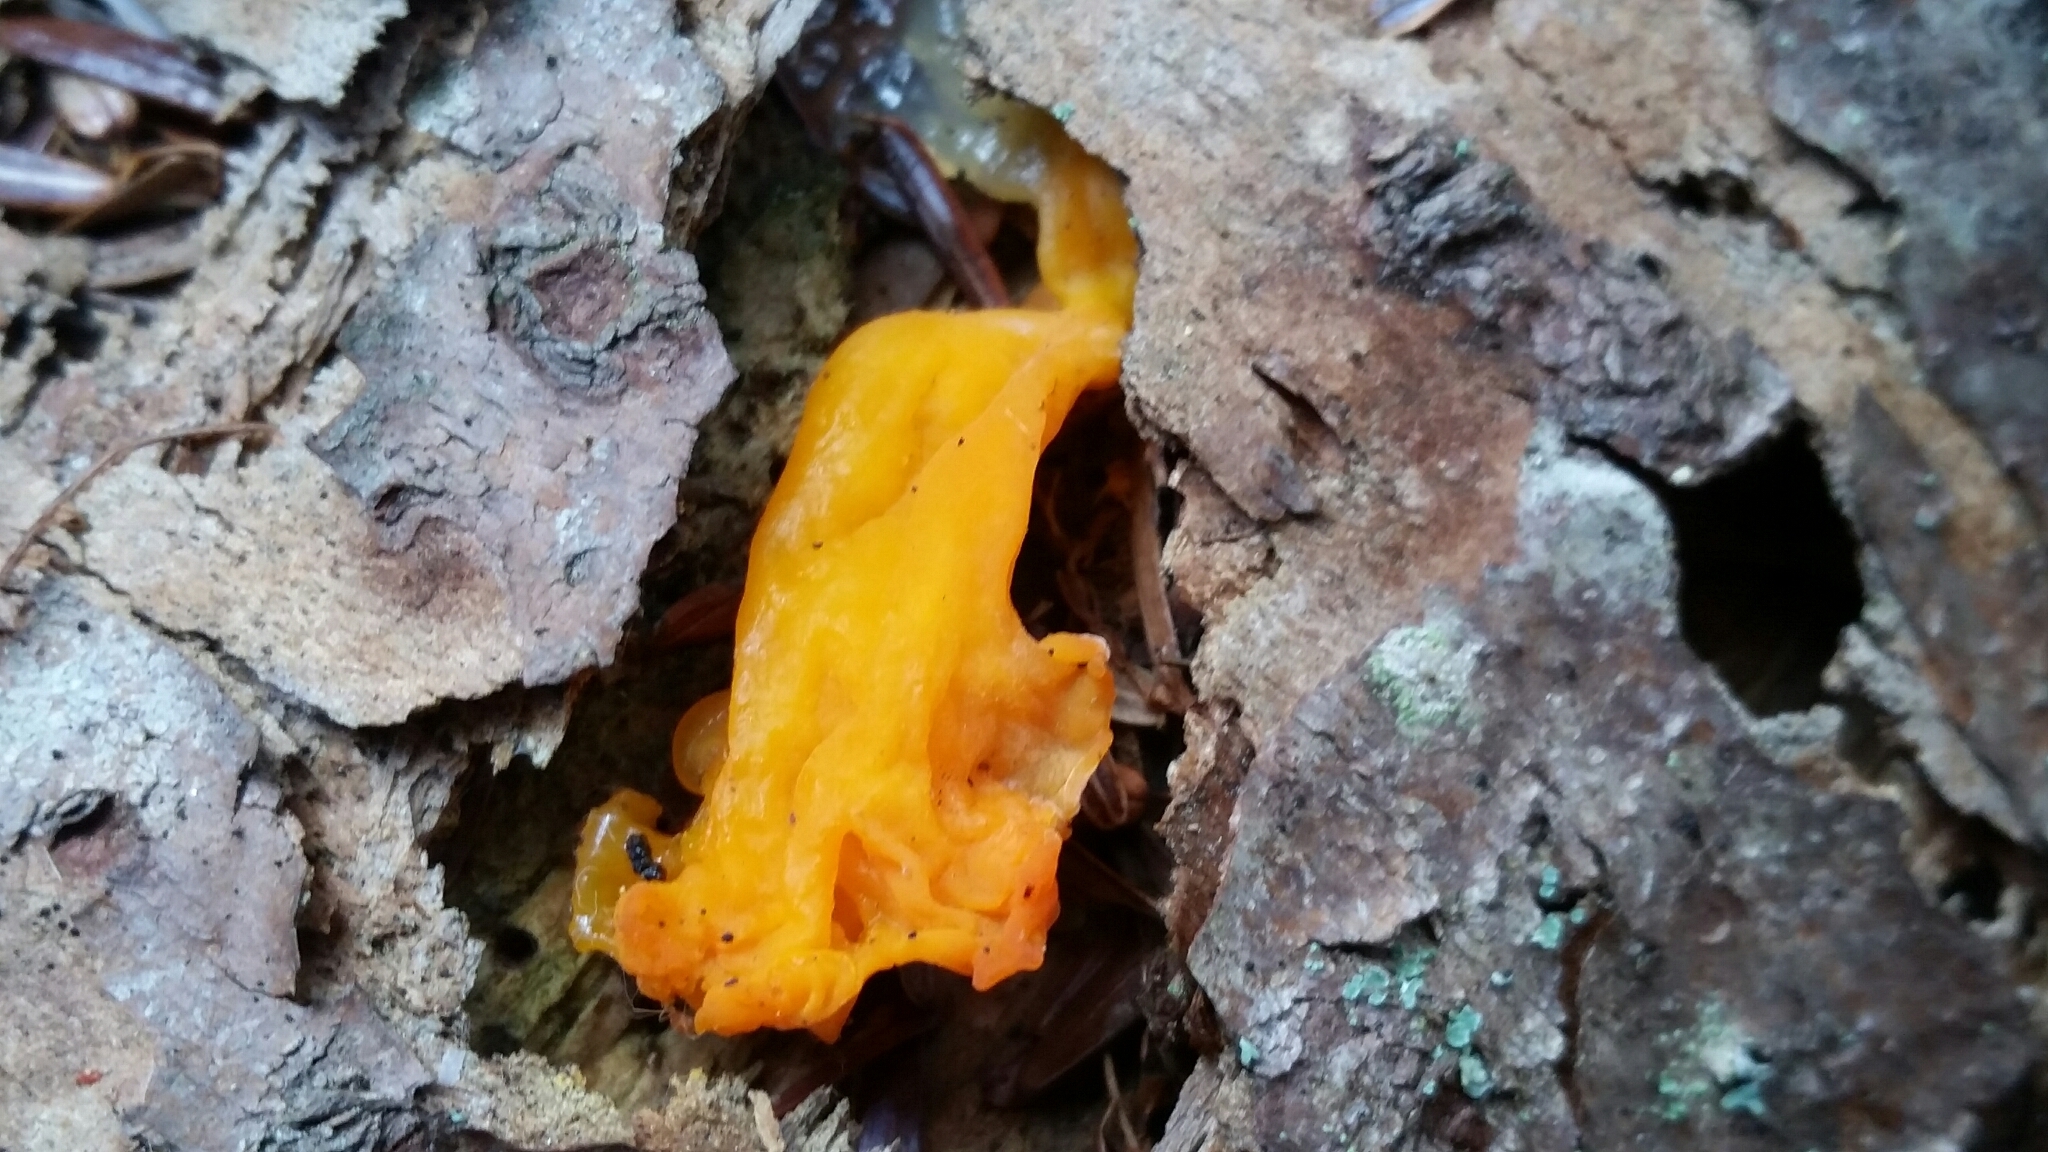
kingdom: Fungi
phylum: Basidiomycota
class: Dacrymycetes
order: Dacrymycetales
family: Dacrymycetaceae
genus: Dacrymyces
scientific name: Dacrymyces chrysospermus
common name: Orange jelly spot
